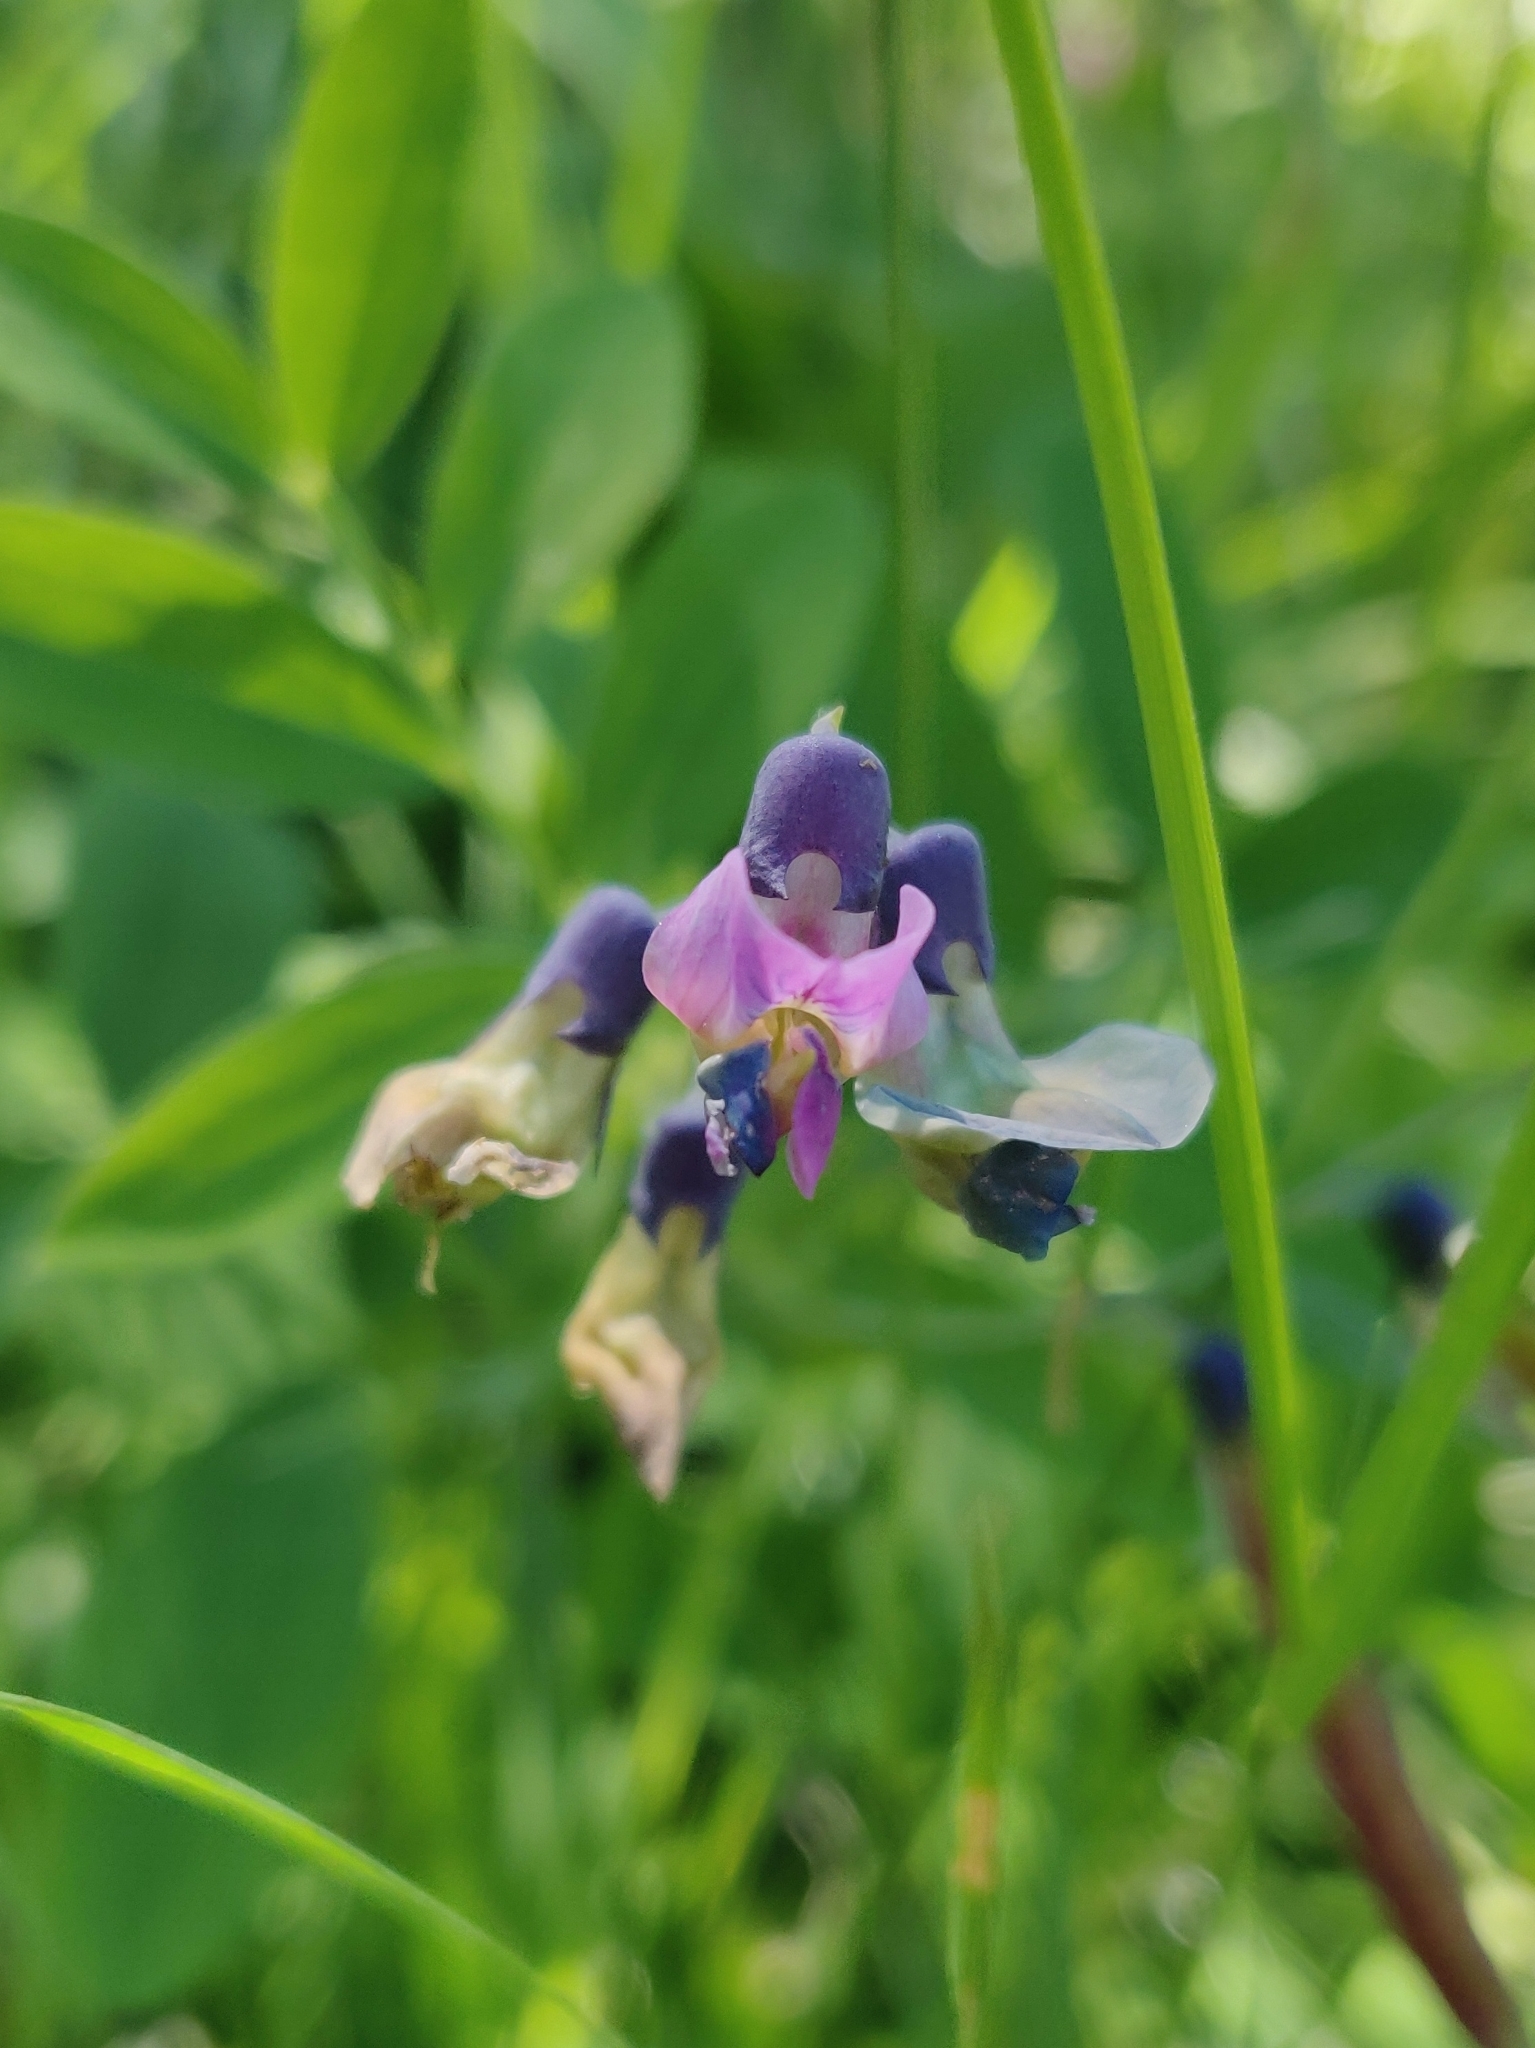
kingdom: Plantae
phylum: Tracheophyta
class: Magnoliopsida
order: Fabales
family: Fabaceae
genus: Lathyrus
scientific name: Lathyrus linifolius
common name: Bitter-vetch
